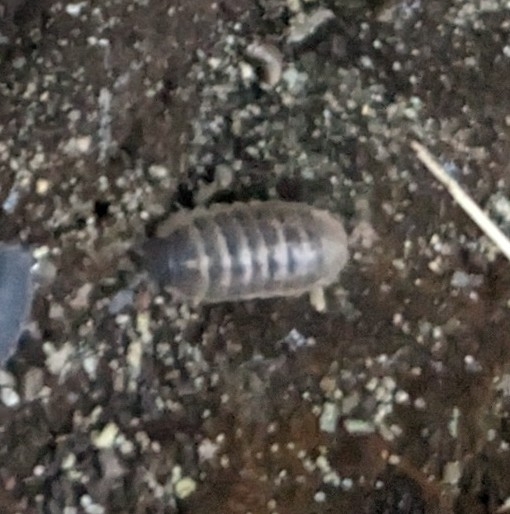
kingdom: Animalia
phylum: Arthropoda
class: Malacostraca
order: Isopoda
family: Armadillidiidae
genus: Armadillidium
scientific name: Armadillidium vulgare
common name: Common pill woodlouse
